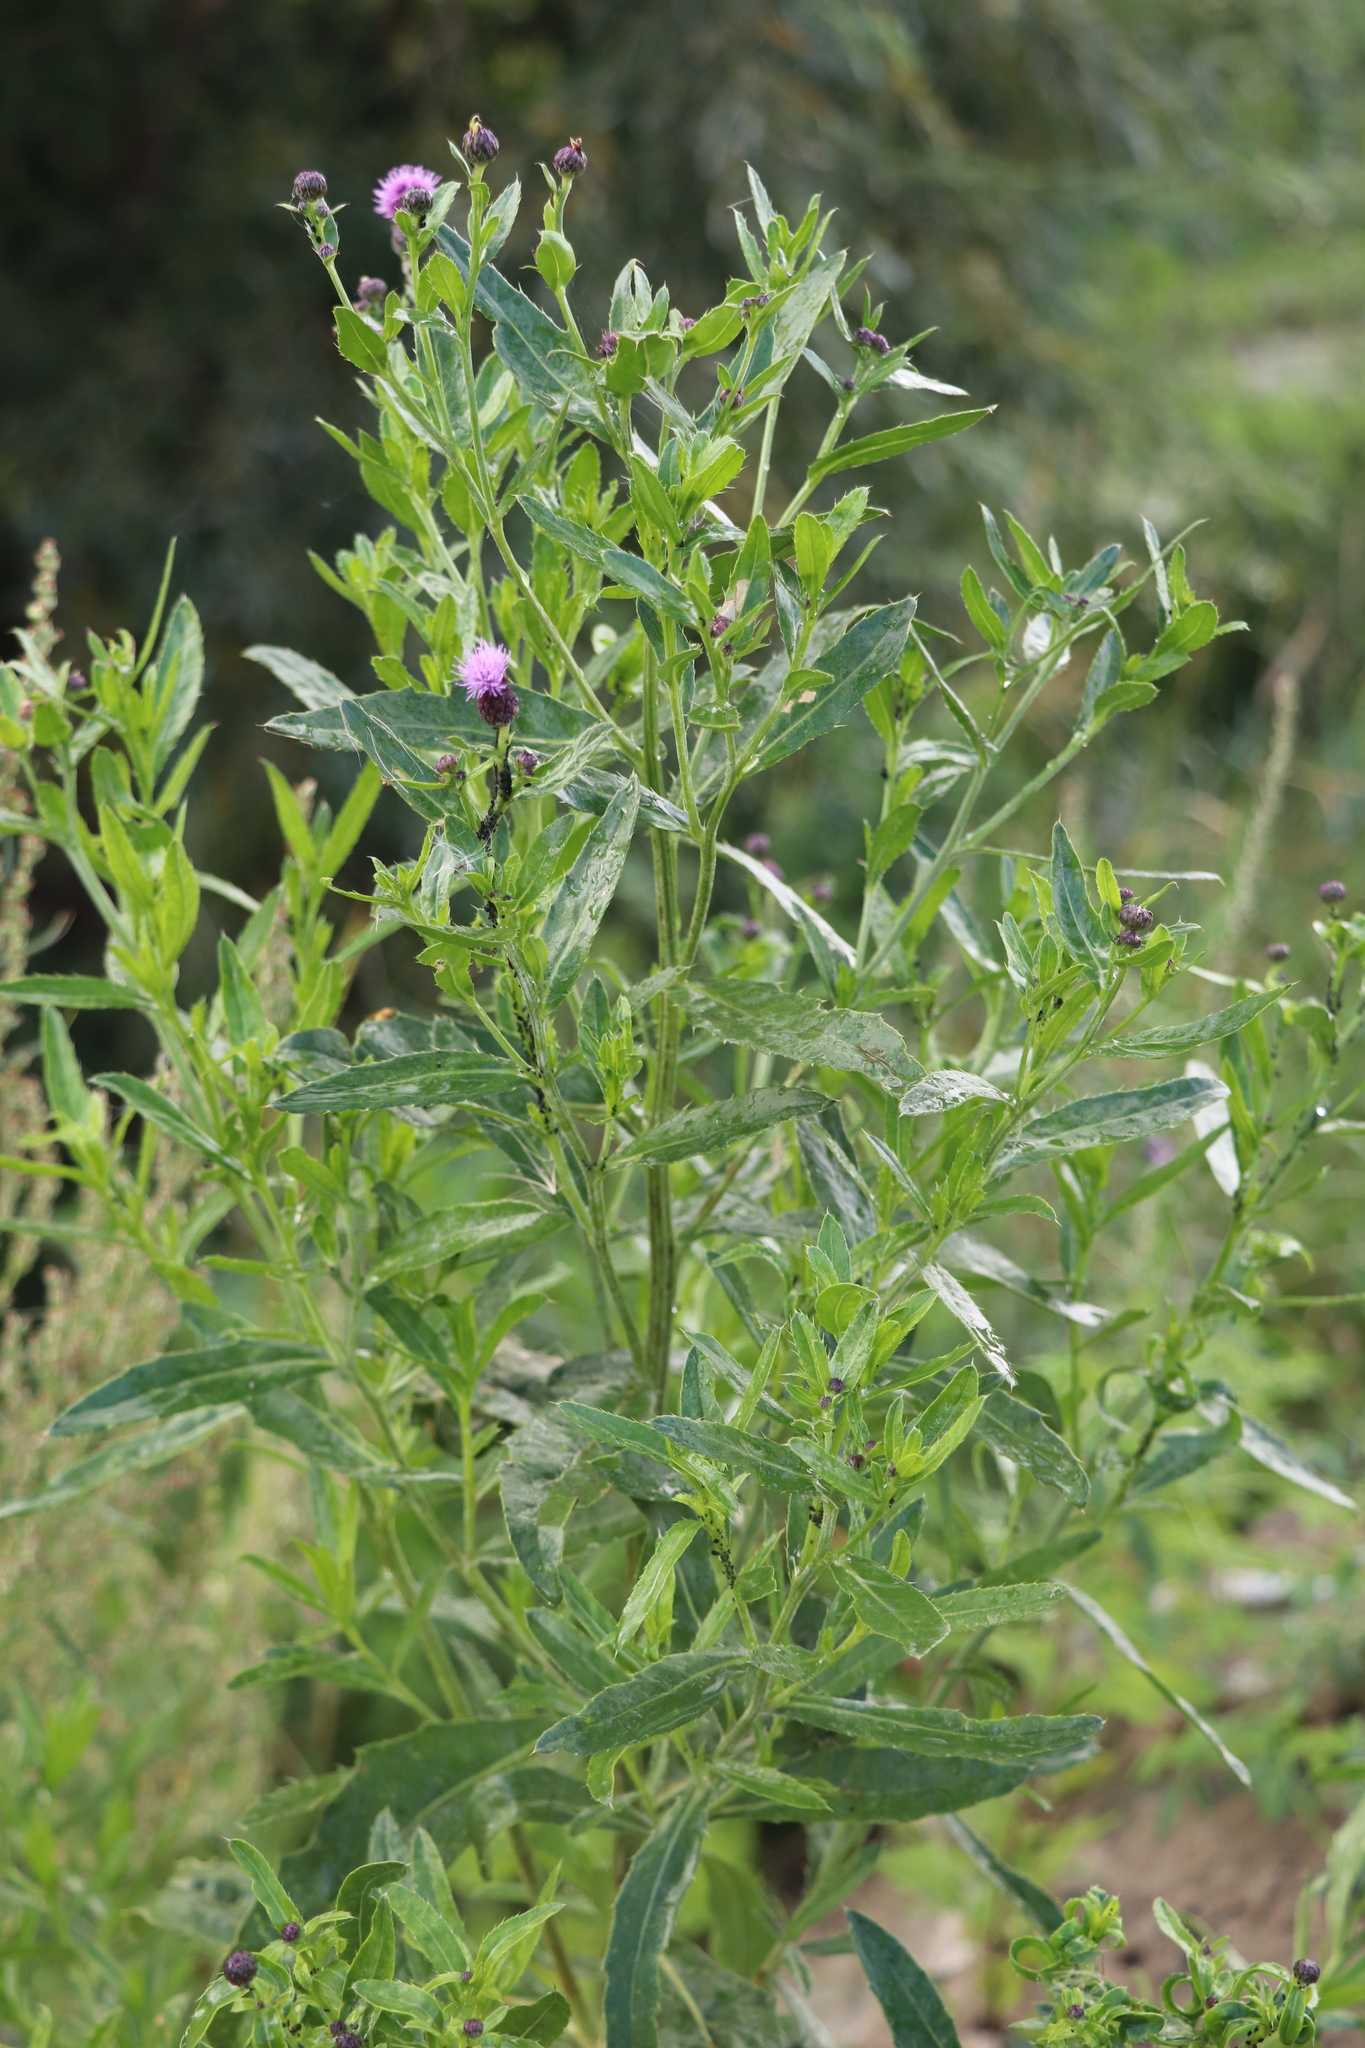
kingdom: Plantae
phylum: Tracheophyta
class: Magnoliopsida
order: Asterales
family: Asteraceae
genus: Cirsium
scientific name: Cirsium arvense
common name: Creeping thistle
